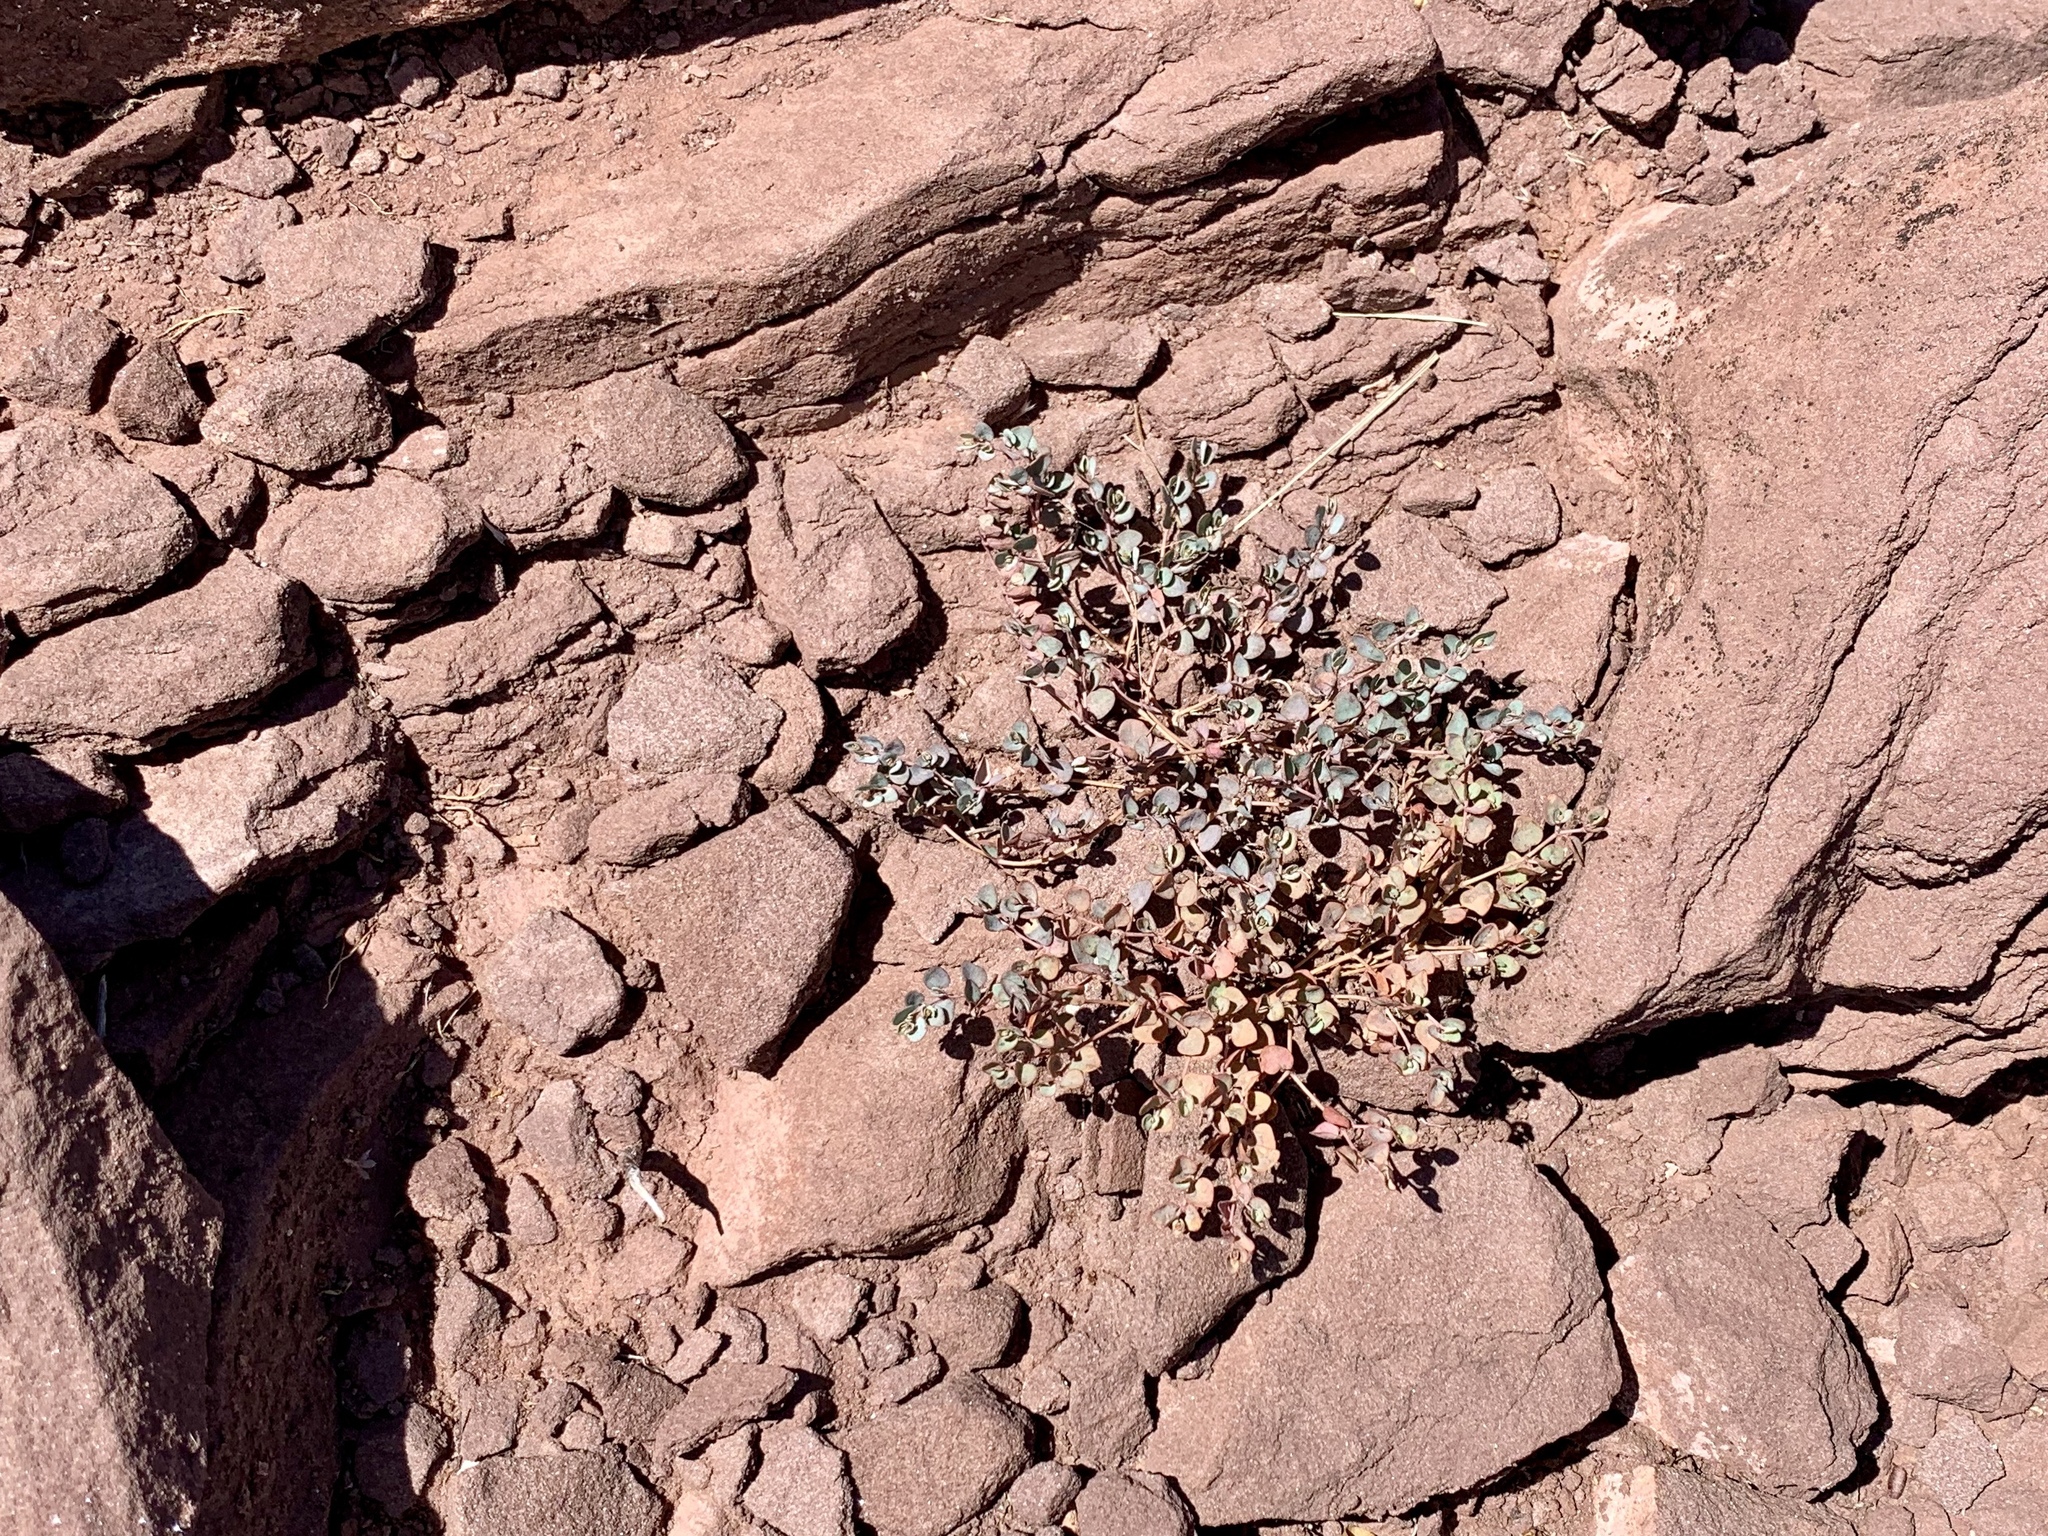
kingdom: Plantae
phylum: Tracheophyta
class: Magnoliopsida
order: Malpighiales
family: Euphorbiaceae
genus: Euphorbia
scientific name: Euphorbia fendleri
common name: Fendler's euphorbia
